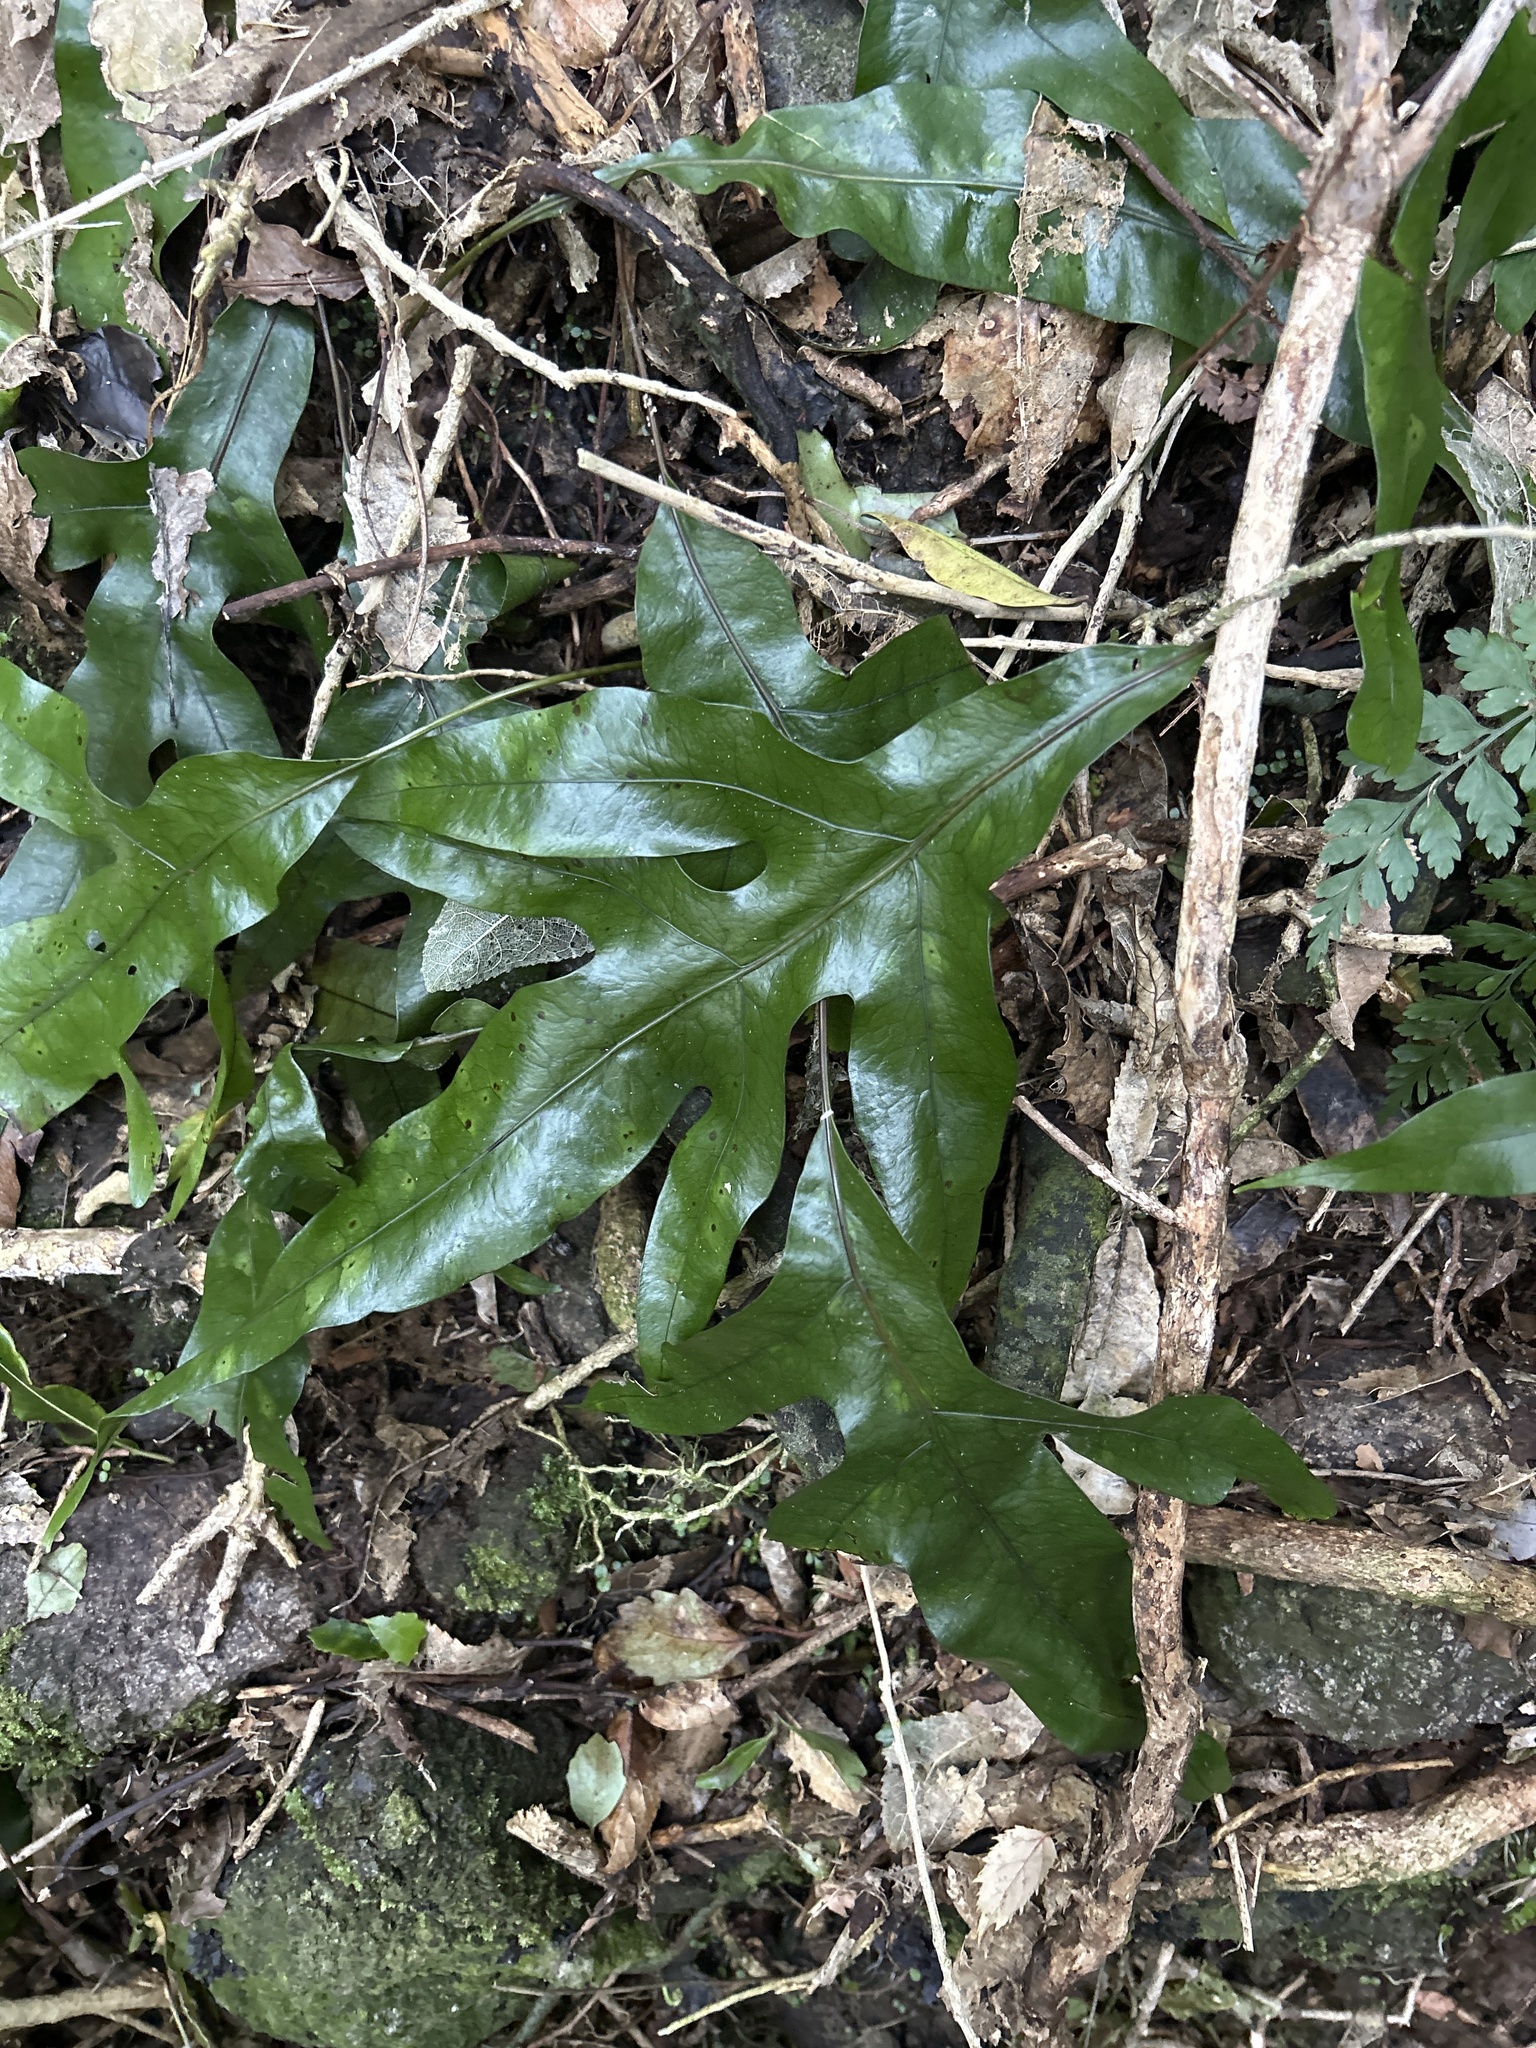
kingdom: Plantae
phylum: Tracheophyta
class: Polypodiopsida
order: Polypodiales
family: Polypodiaceae
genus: Lecanopteris
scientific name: Lecanopteris pustulata
